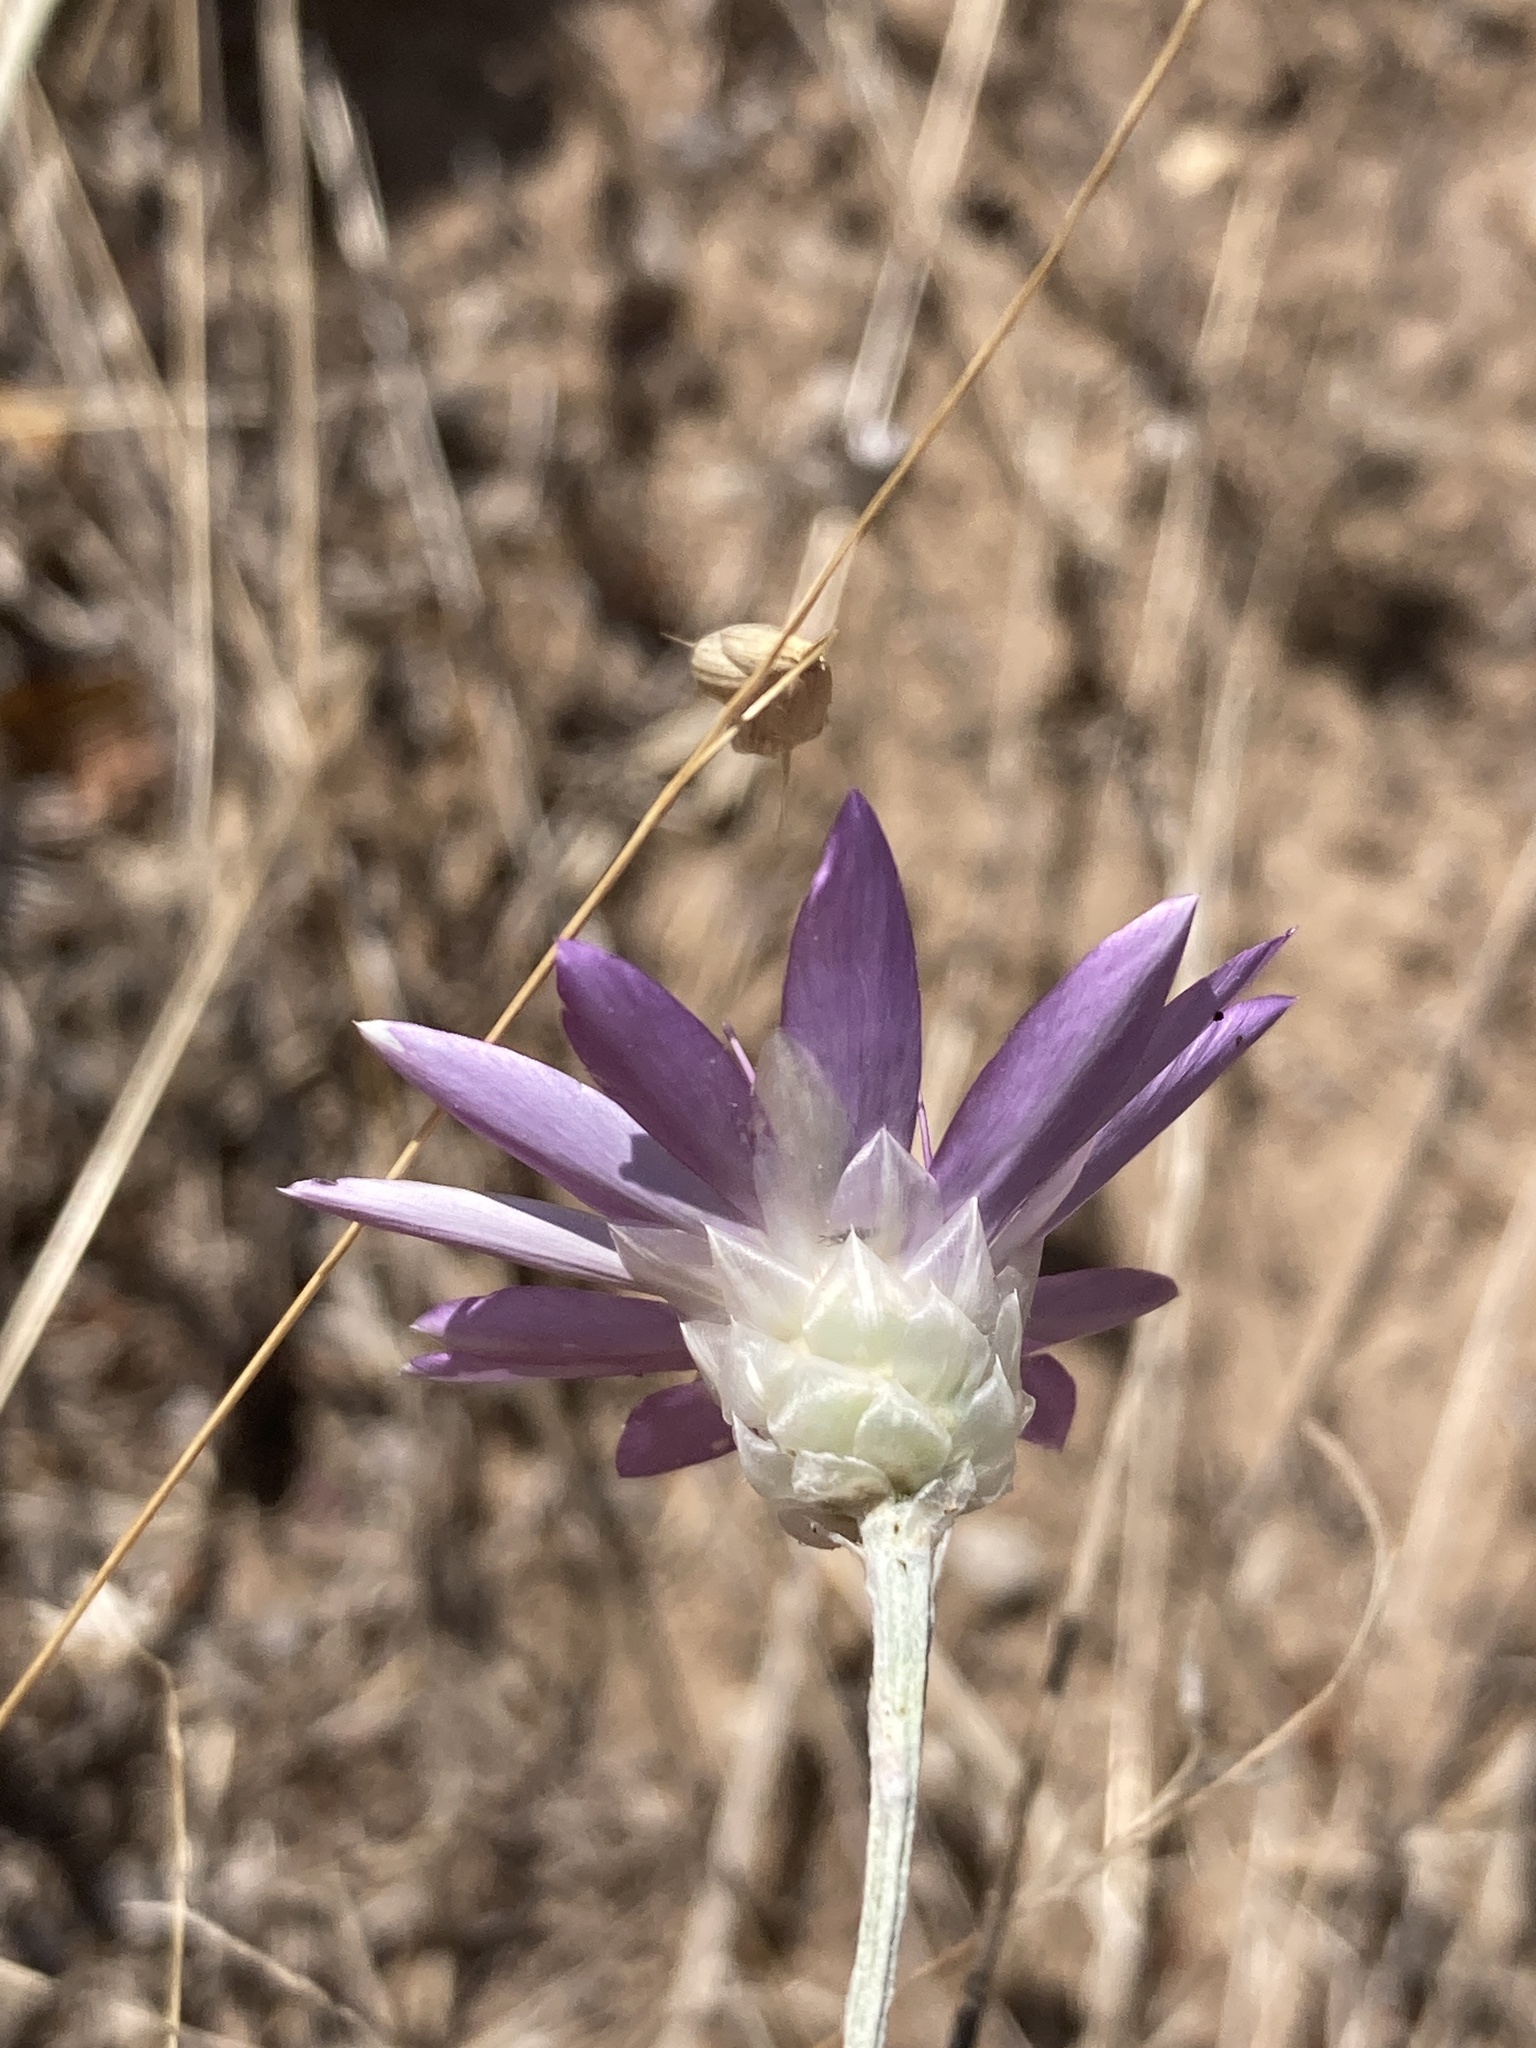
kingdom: Plantae
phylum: Tracheophyta
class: Magnoliopsida
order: Asterales
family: Asteraceae
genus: Xeranthemum
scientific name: Xeranthemum annuum
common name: Immortelle
